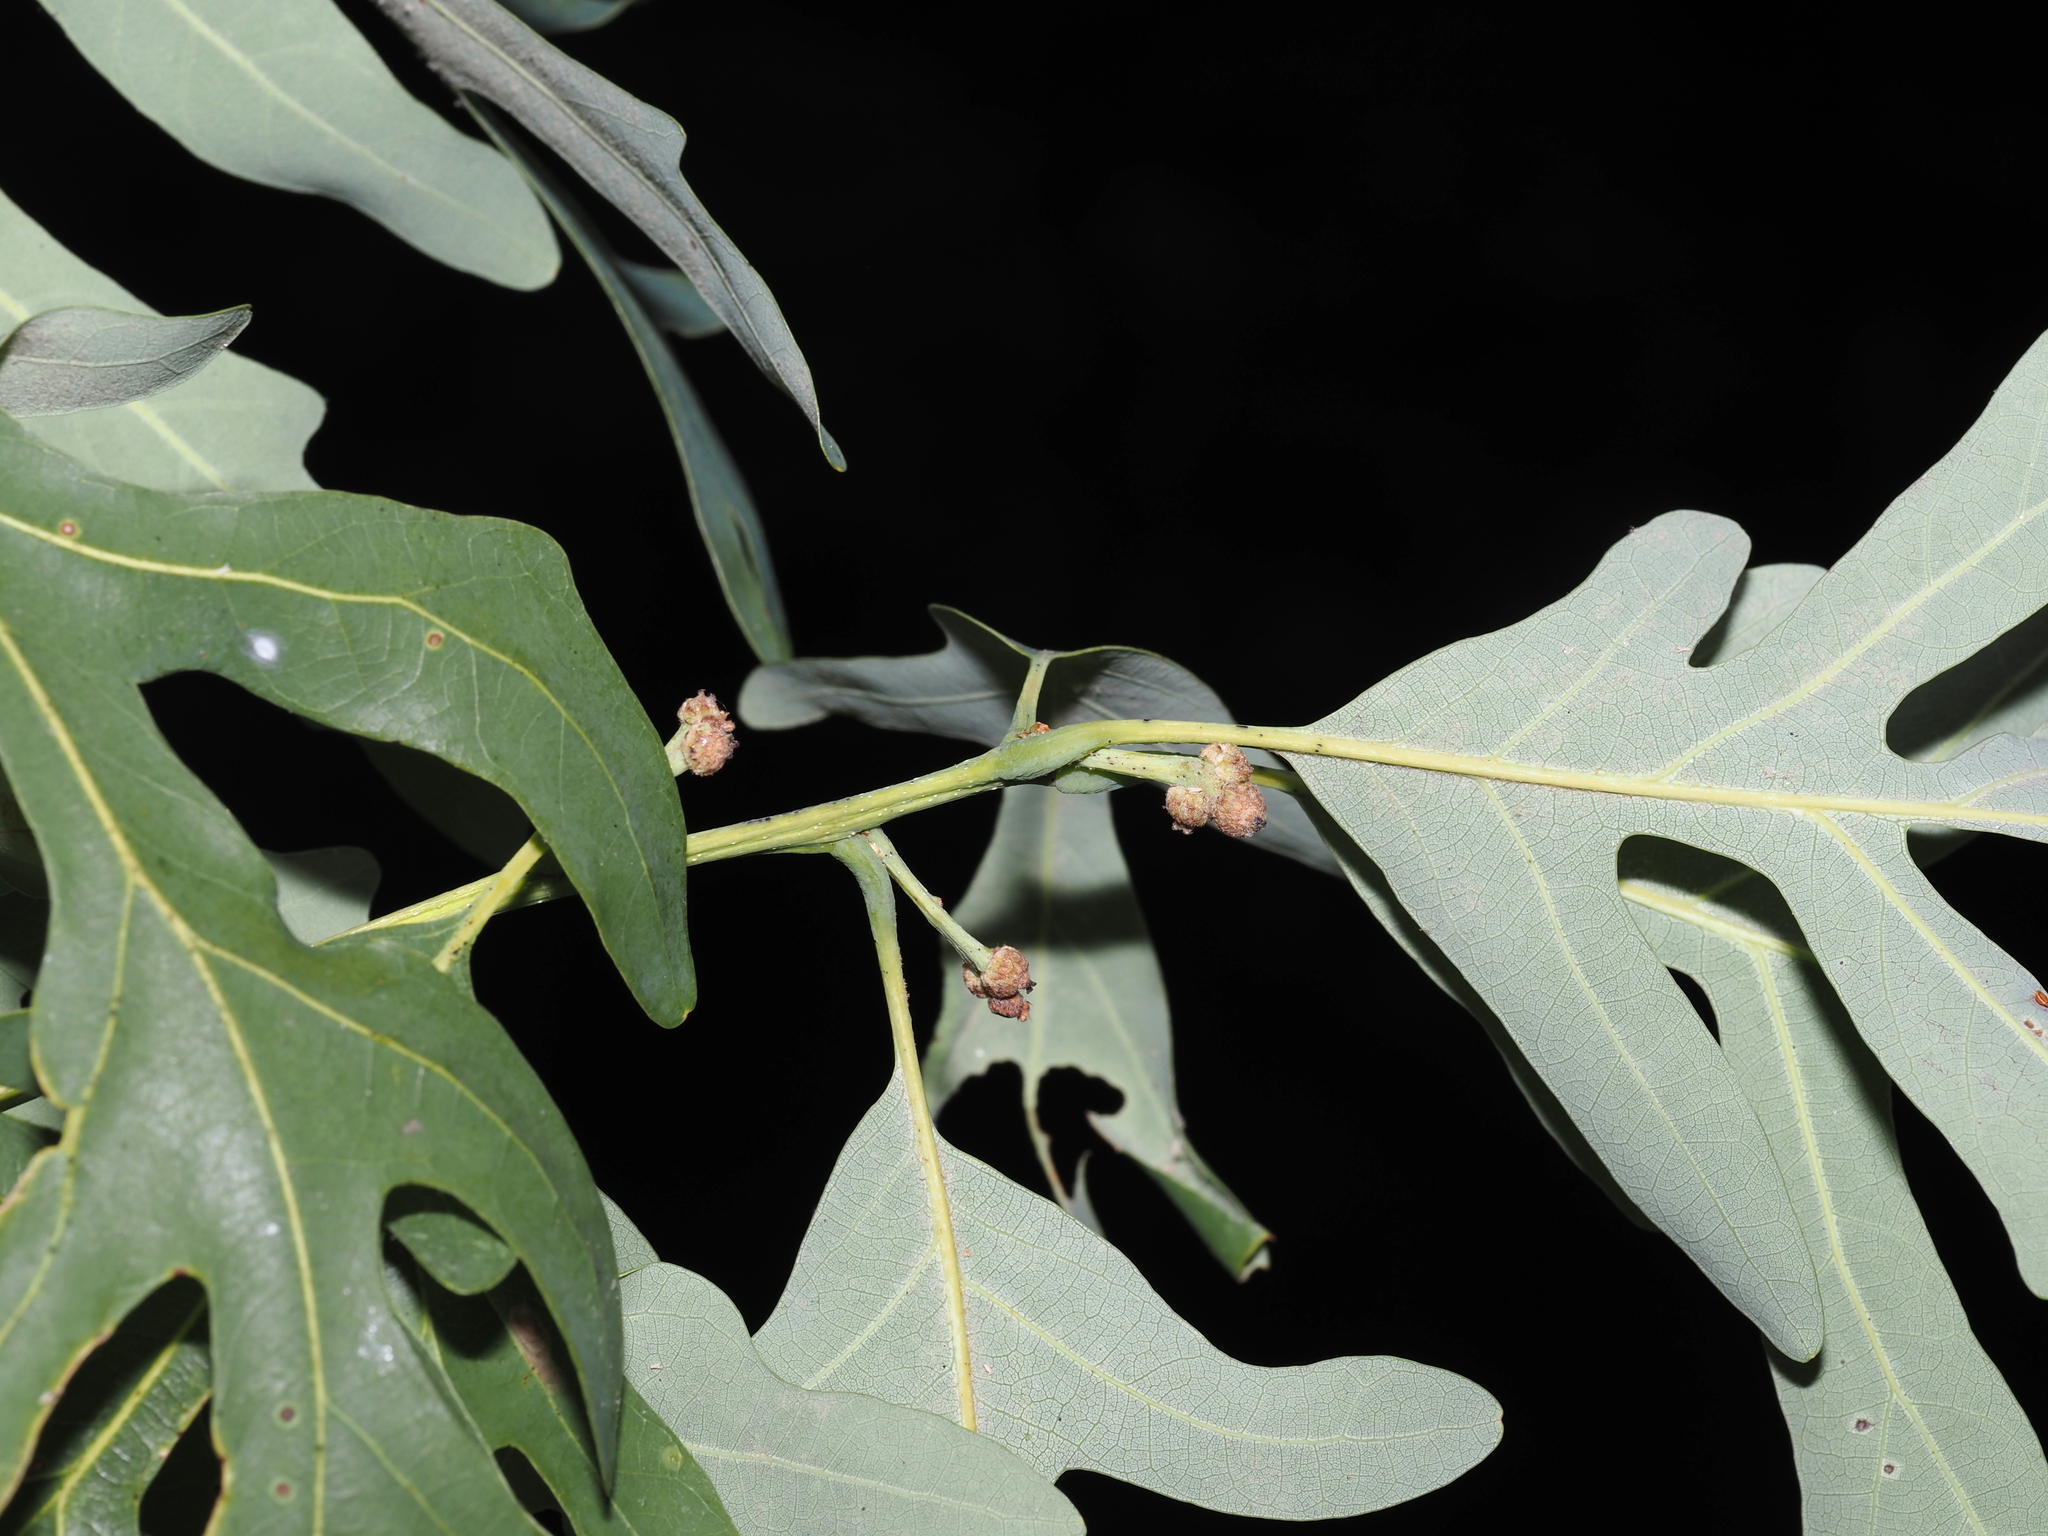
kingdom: Plantae
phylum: Tracheophyta
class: Magnoliopsida
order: Fagales
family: Fagaceae
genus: Quercus
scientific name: Quercus alba
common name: White oak
